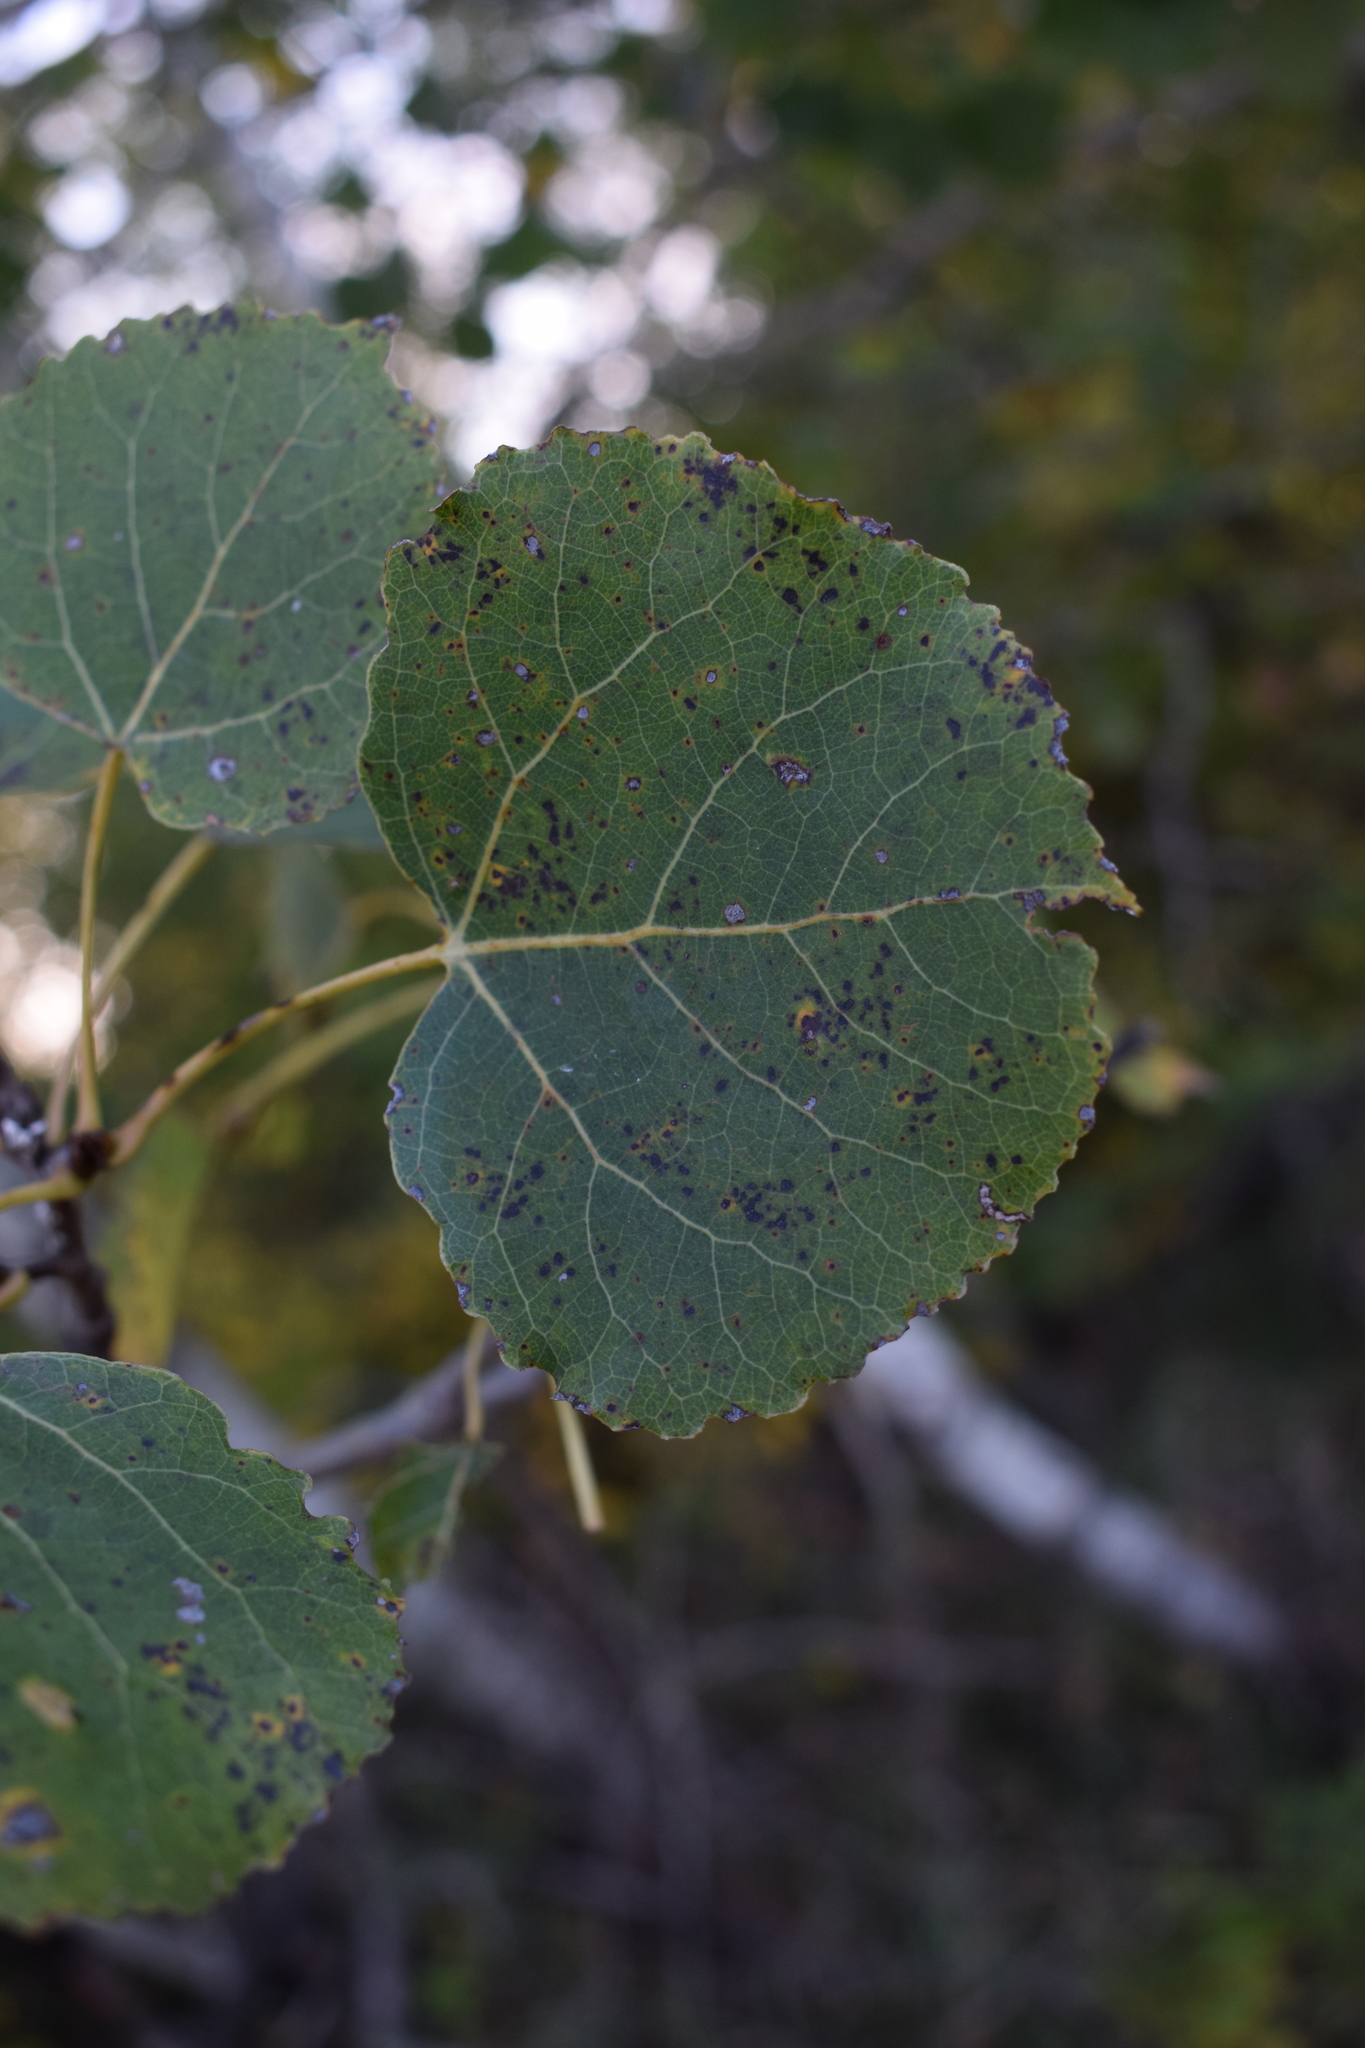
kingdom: Plantae
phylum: Tracheophyta
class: Magnoliopsida
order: Malpighiales
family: Salicaceae
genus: Populus
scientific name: Populus tremuloides
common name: Quaking aspen
